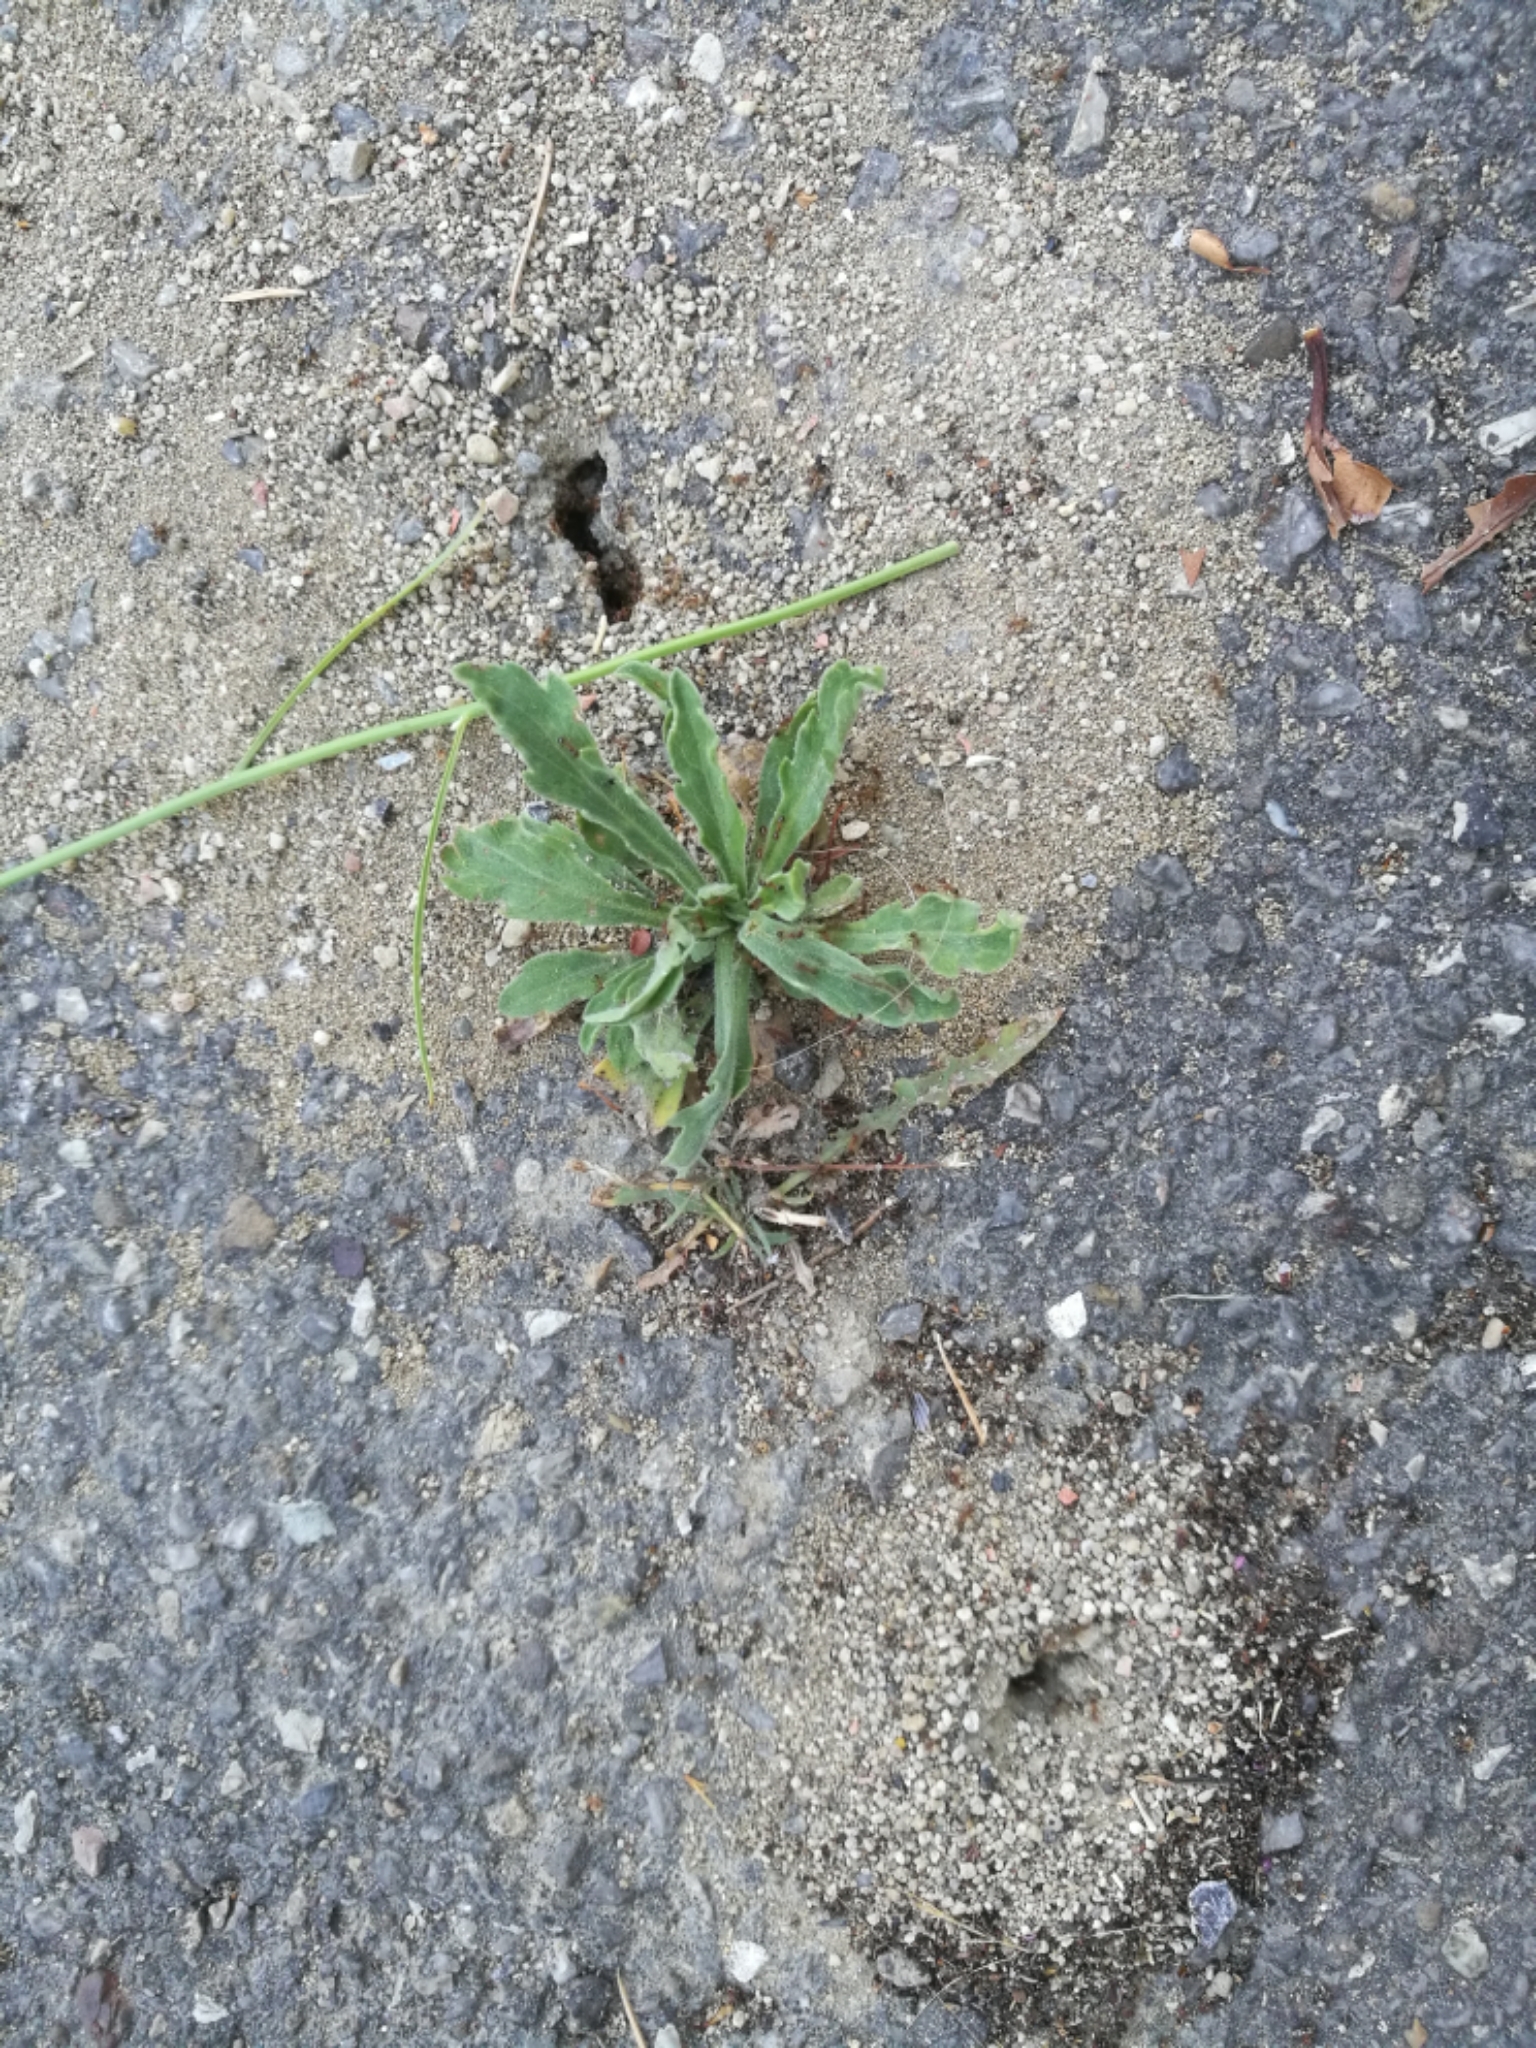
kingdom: Animalia
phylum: Arthropoda
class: Insecta
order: Hymenoptera
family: Formicidae
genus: Pheidole
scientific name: Pheidole pallidula
